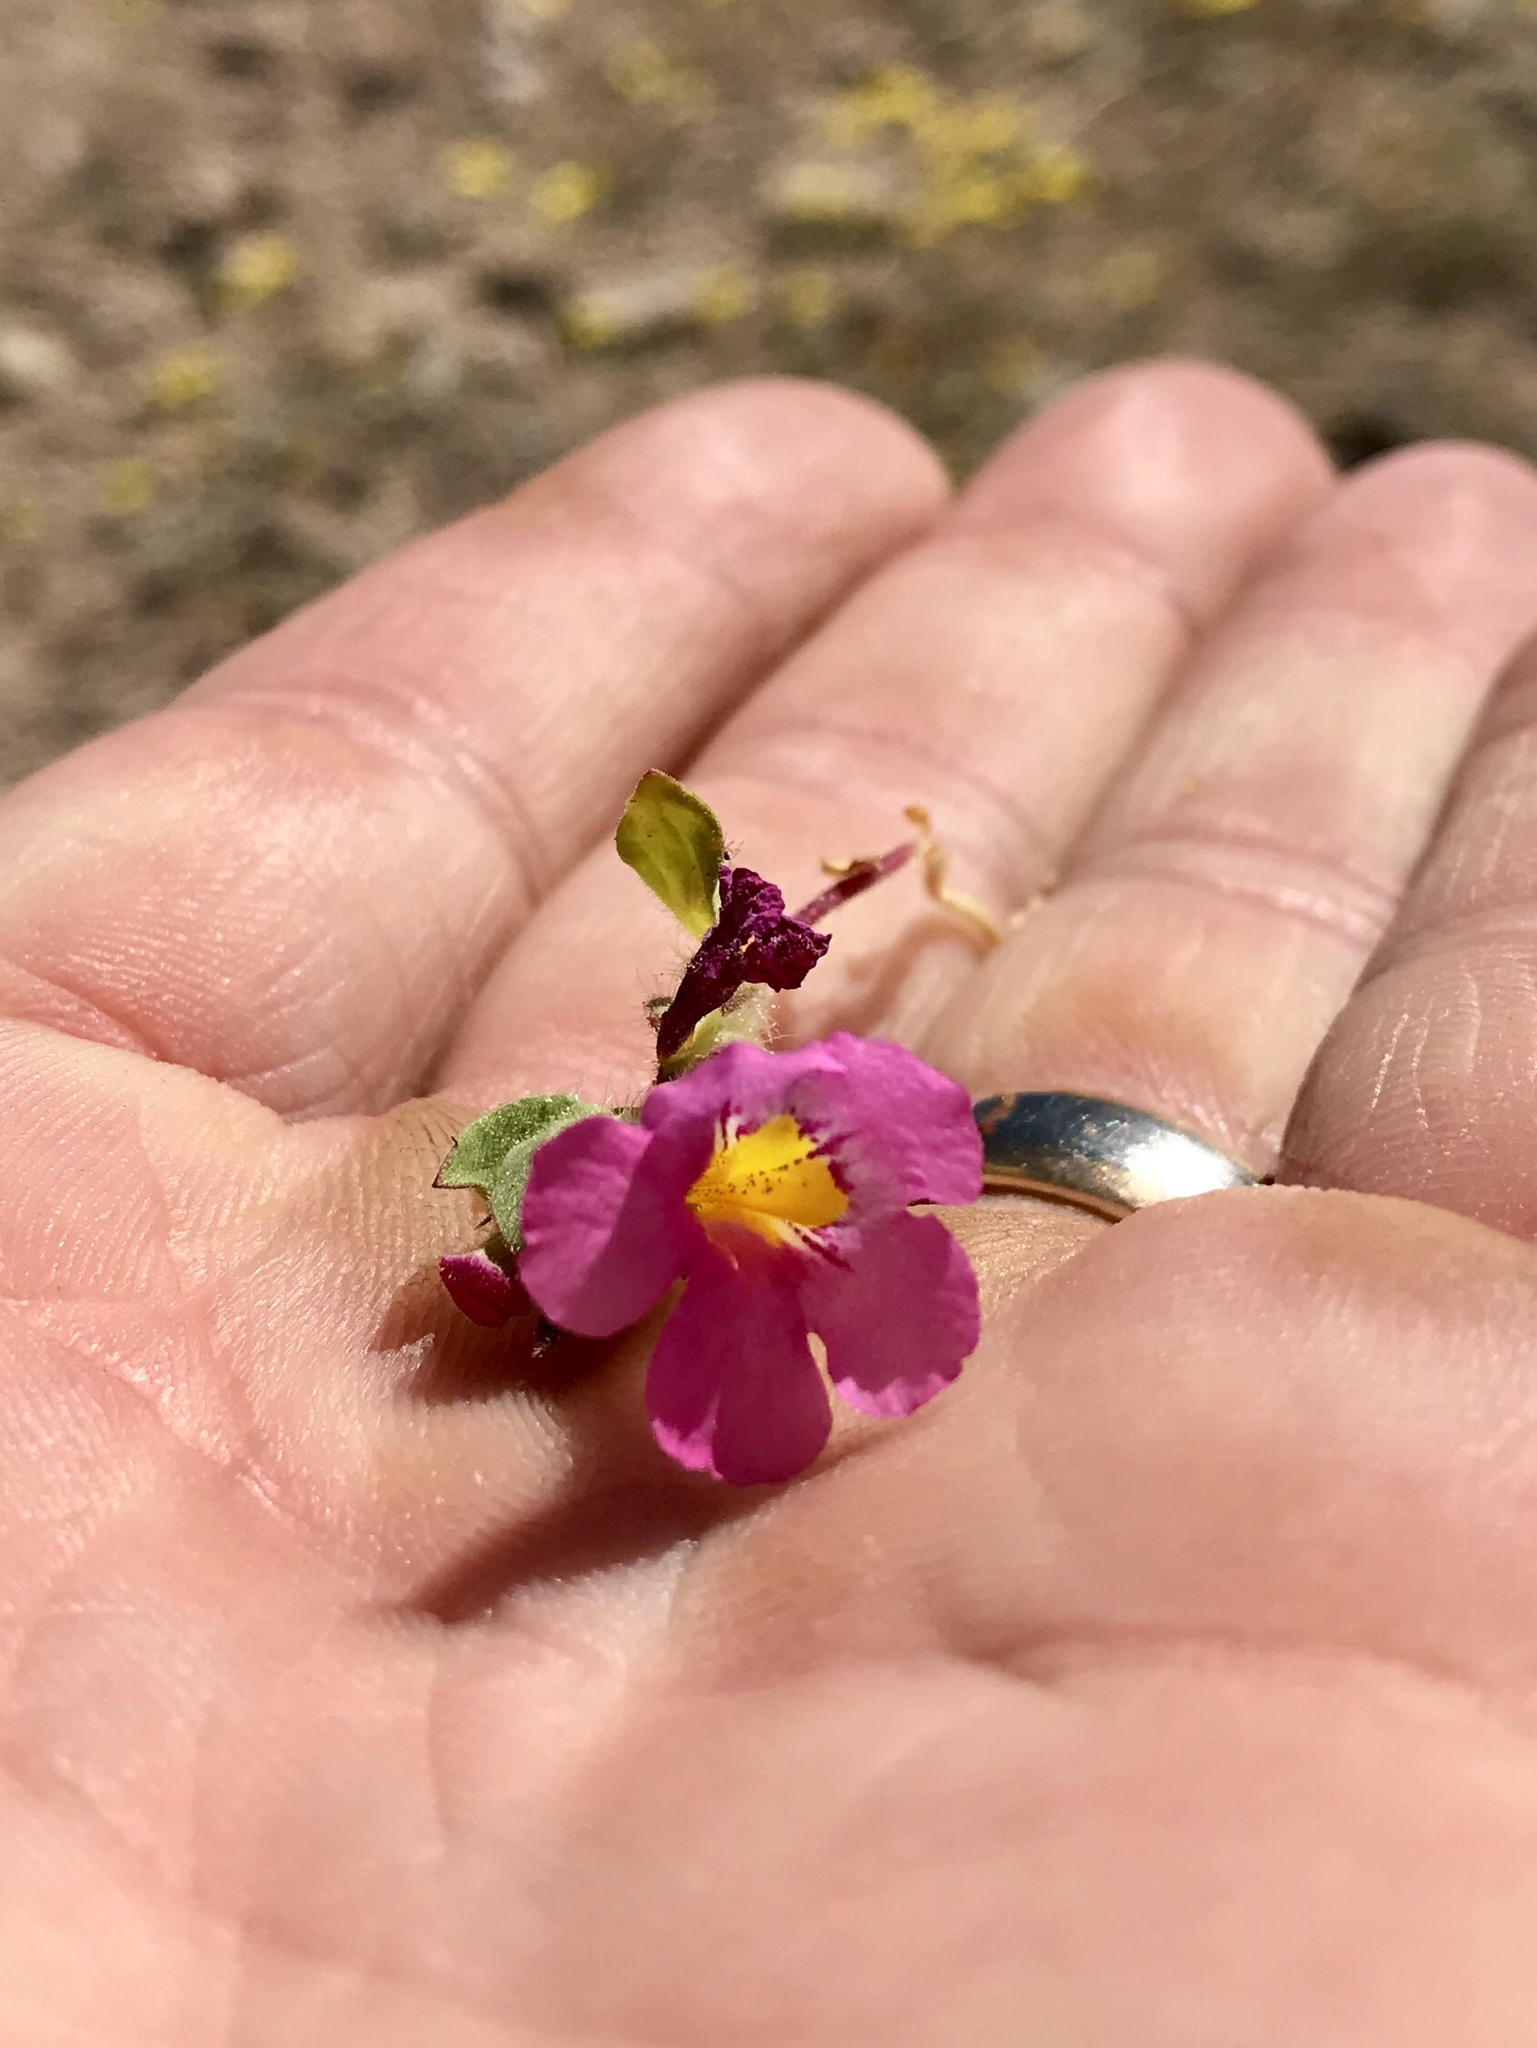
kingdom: Plantae
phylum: Tracheophyta
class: Magnoliopsida
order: Lamiales
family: Phrymaceae
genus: Diplacus
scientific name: Diplacus bigelovii
